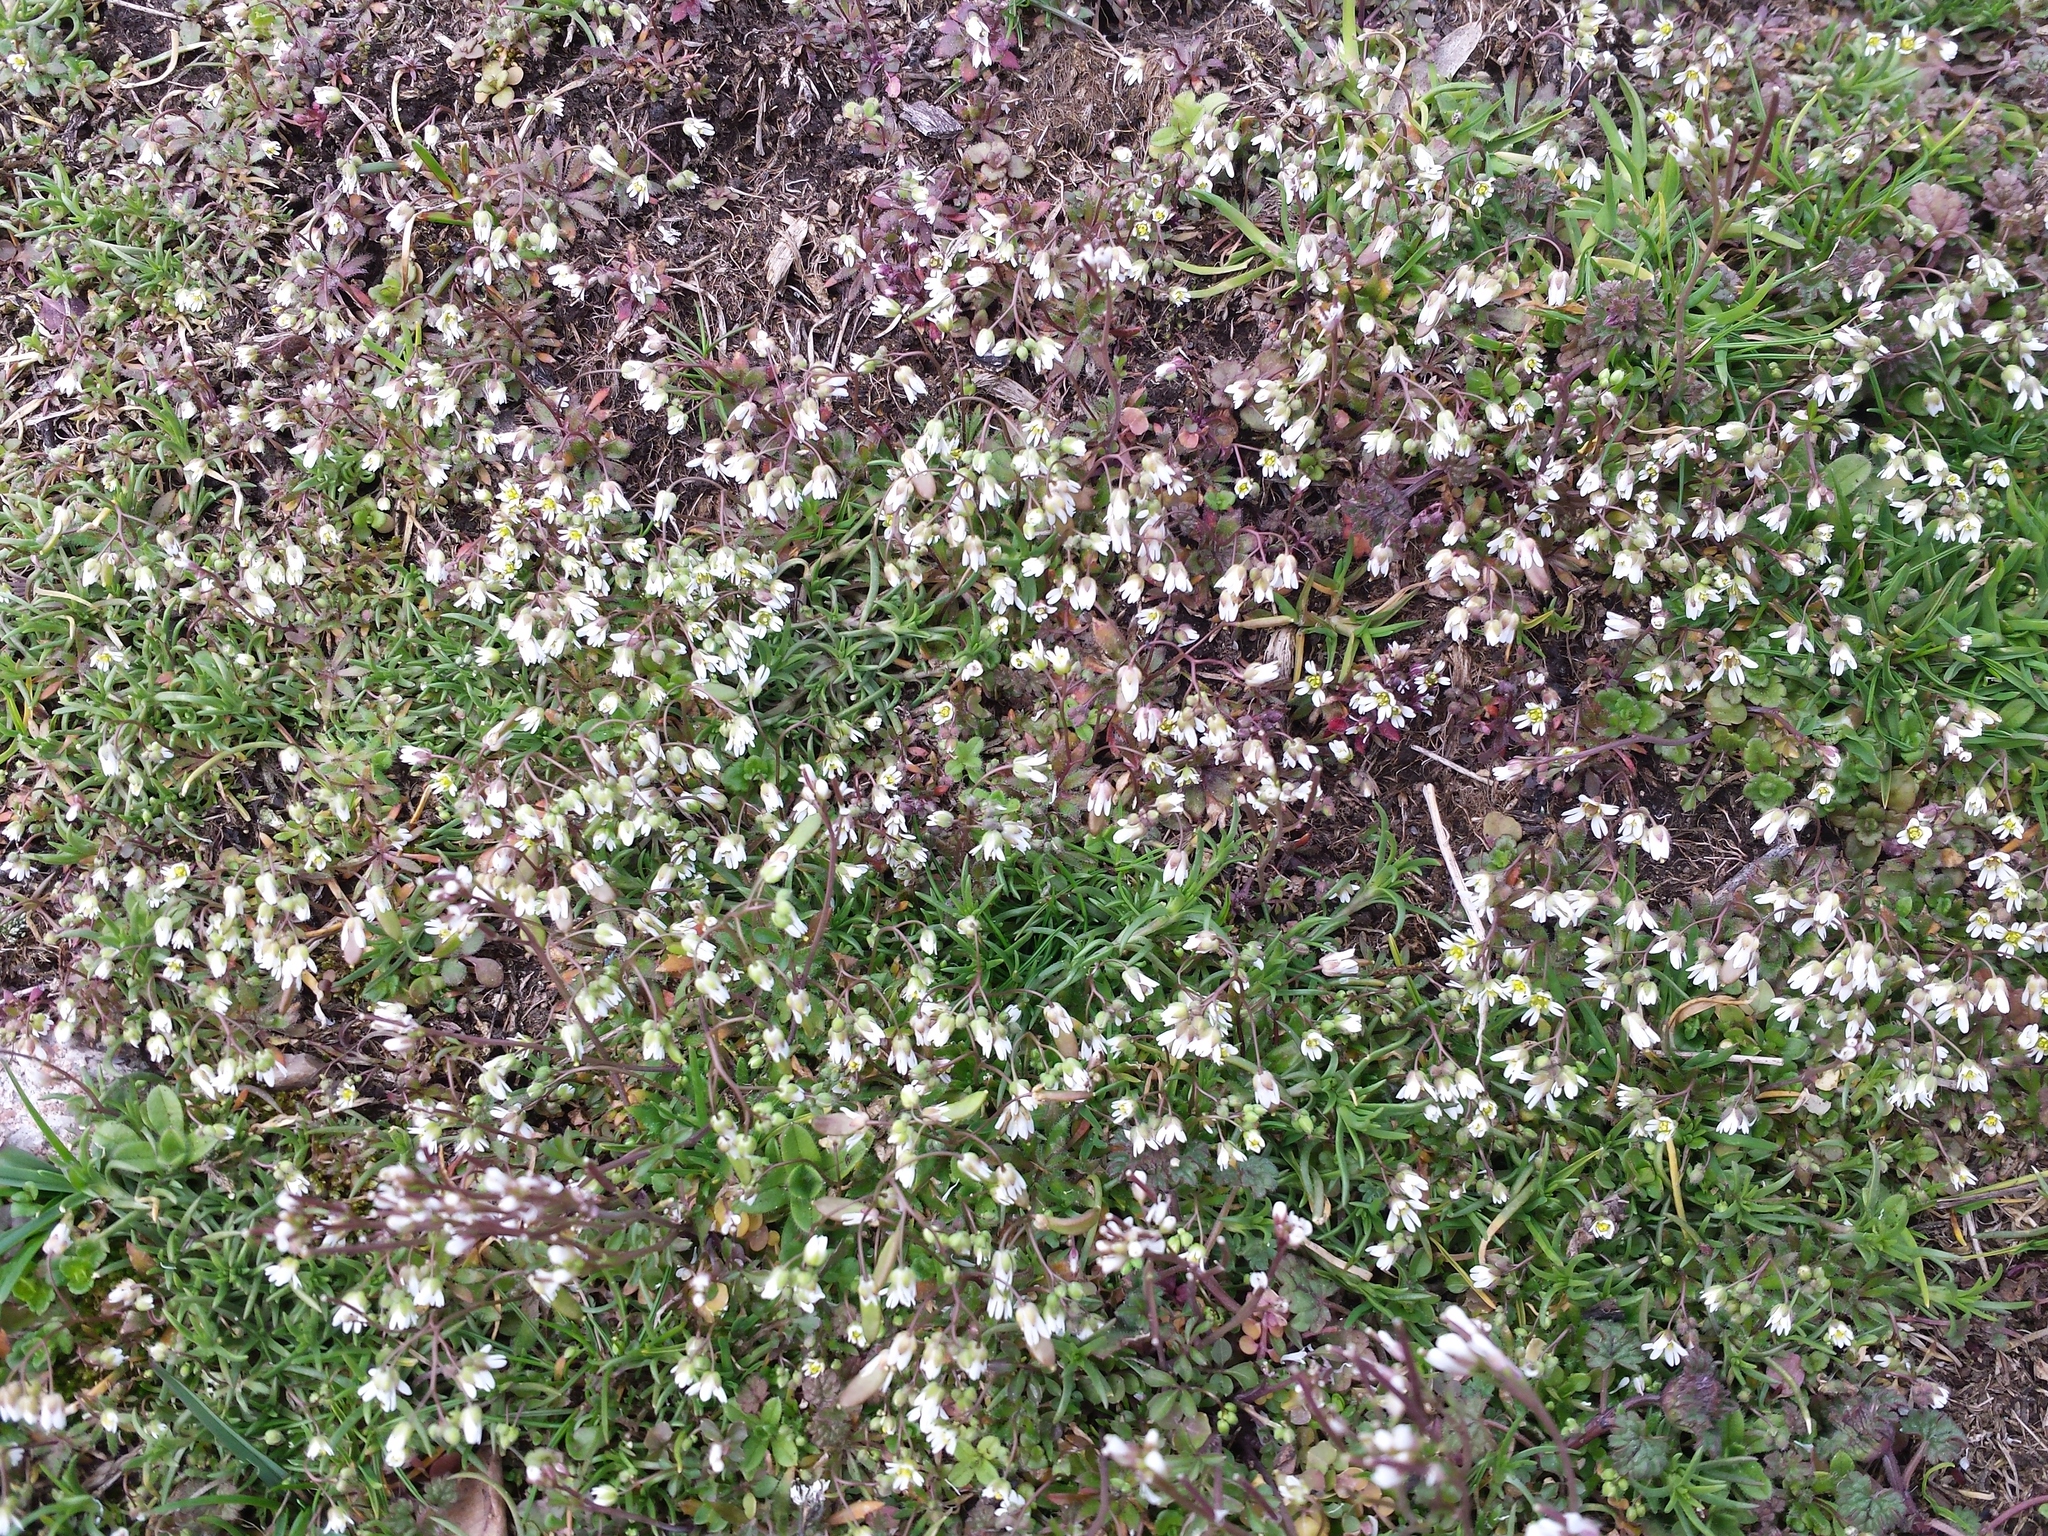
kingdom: Plantae
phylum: Tracheophyta
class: Magnoliopsida
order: Brassicales
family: Brassicaceae
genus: Draba
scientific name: Draba verna
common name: Spring draba
